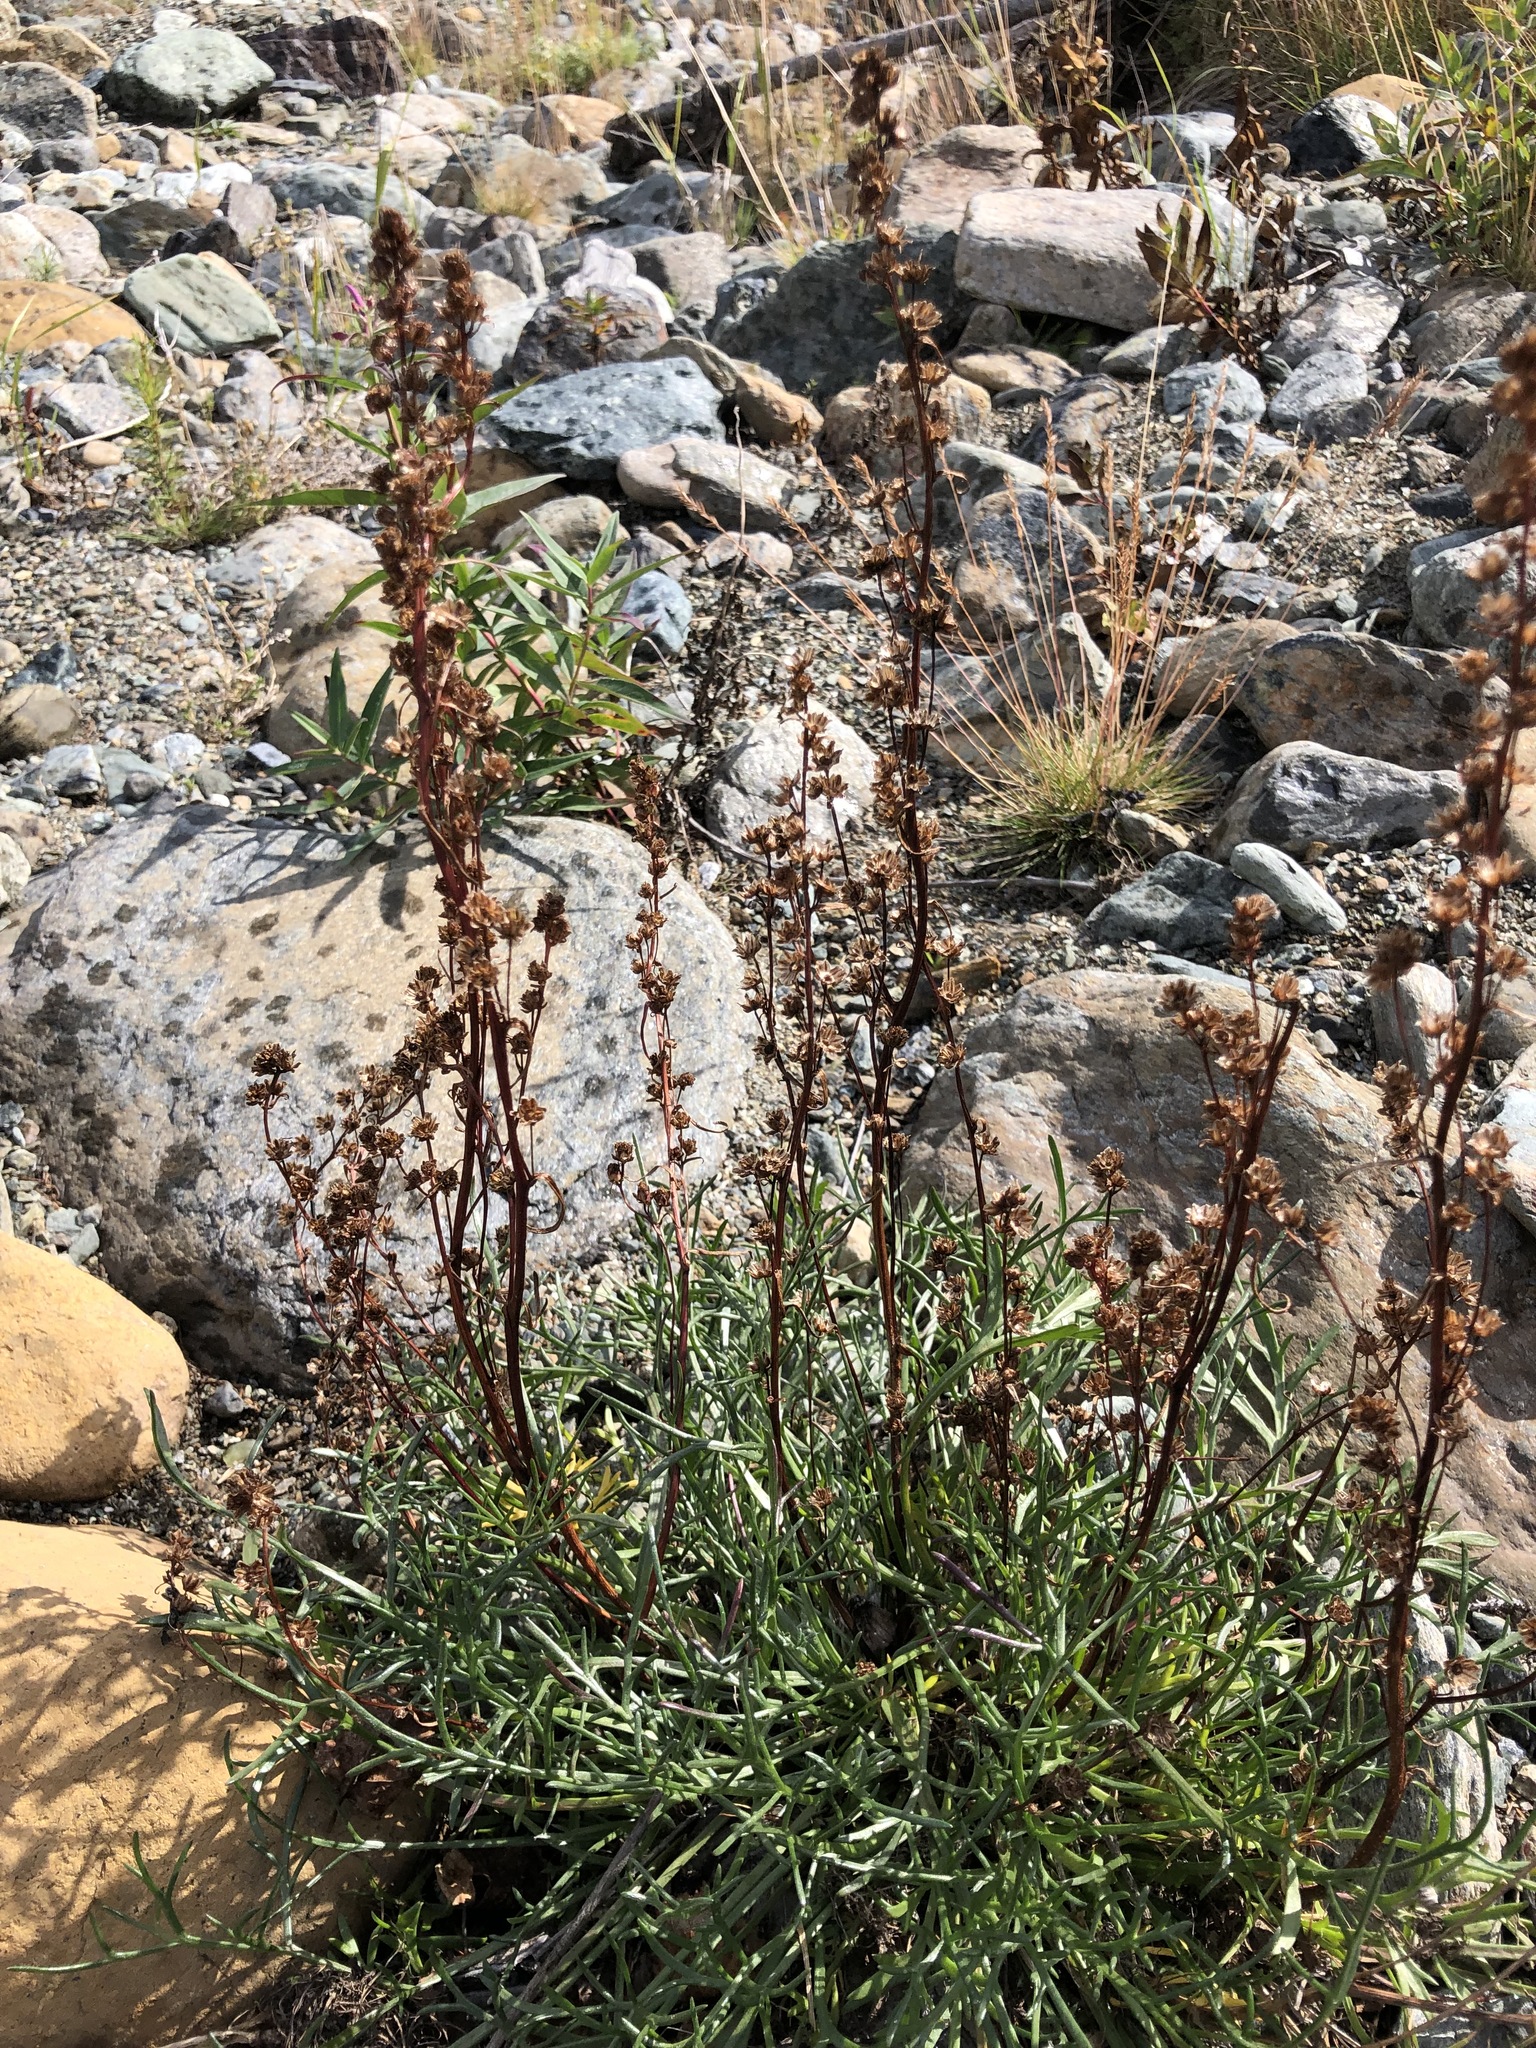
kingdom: Plantae
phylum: Tracheophyta
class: Magnoliopsida
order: Asterales
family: Asteraceae
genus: Artemisia
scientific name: Artemisia borealis
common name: Boreal sage
